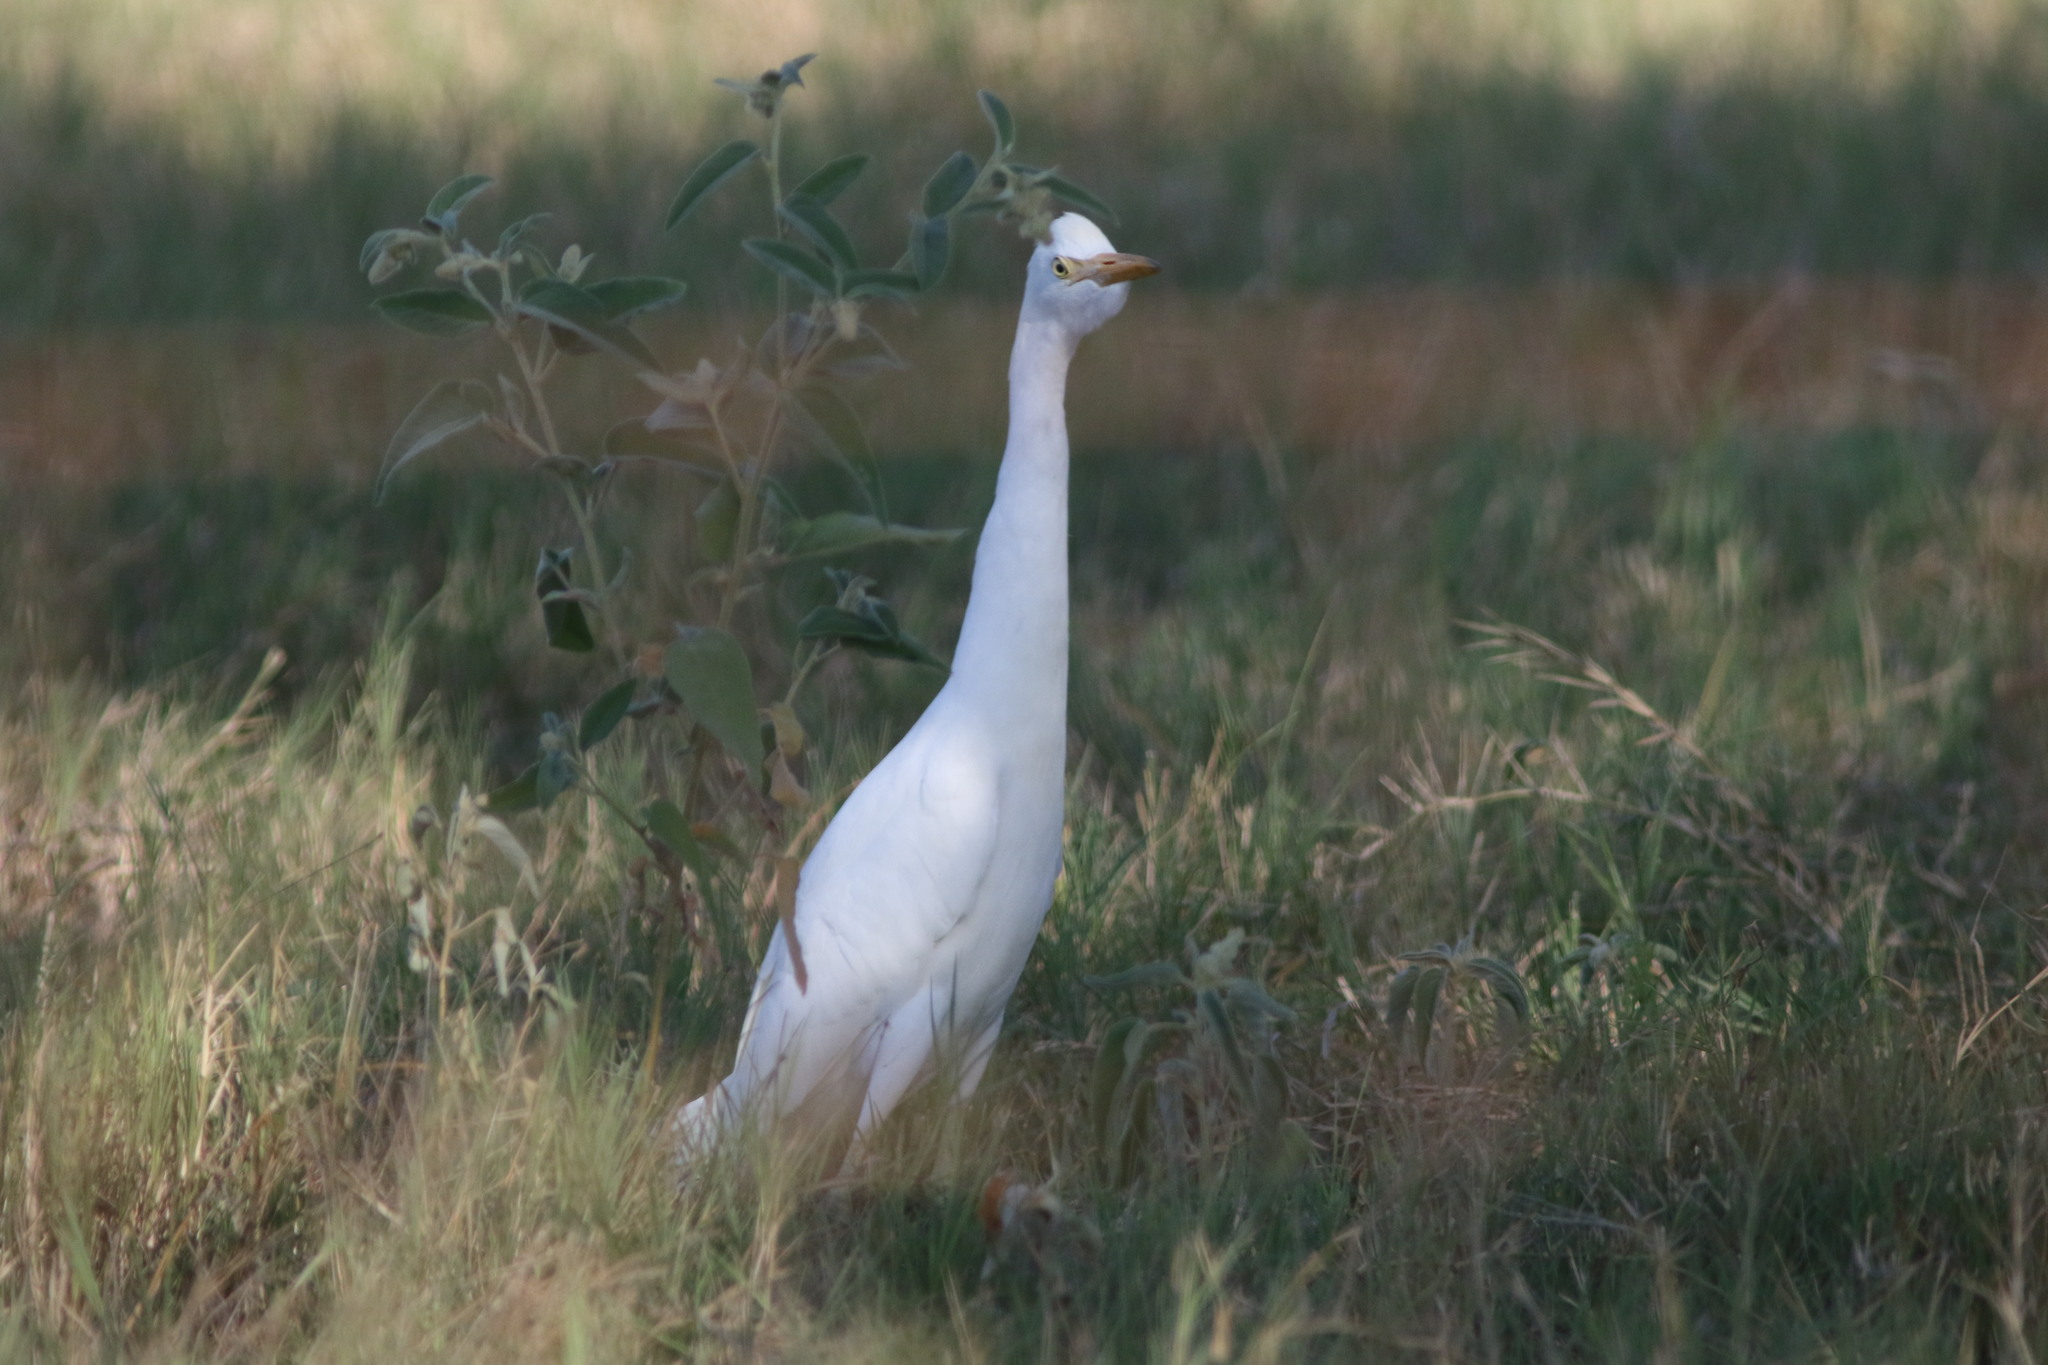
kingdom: Animalia
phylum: Chordata
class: Aves
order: Pelecaniformes
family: Ardeidae
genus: Bubulcus
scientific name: Bubulcus ibis
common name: Cattle egret
